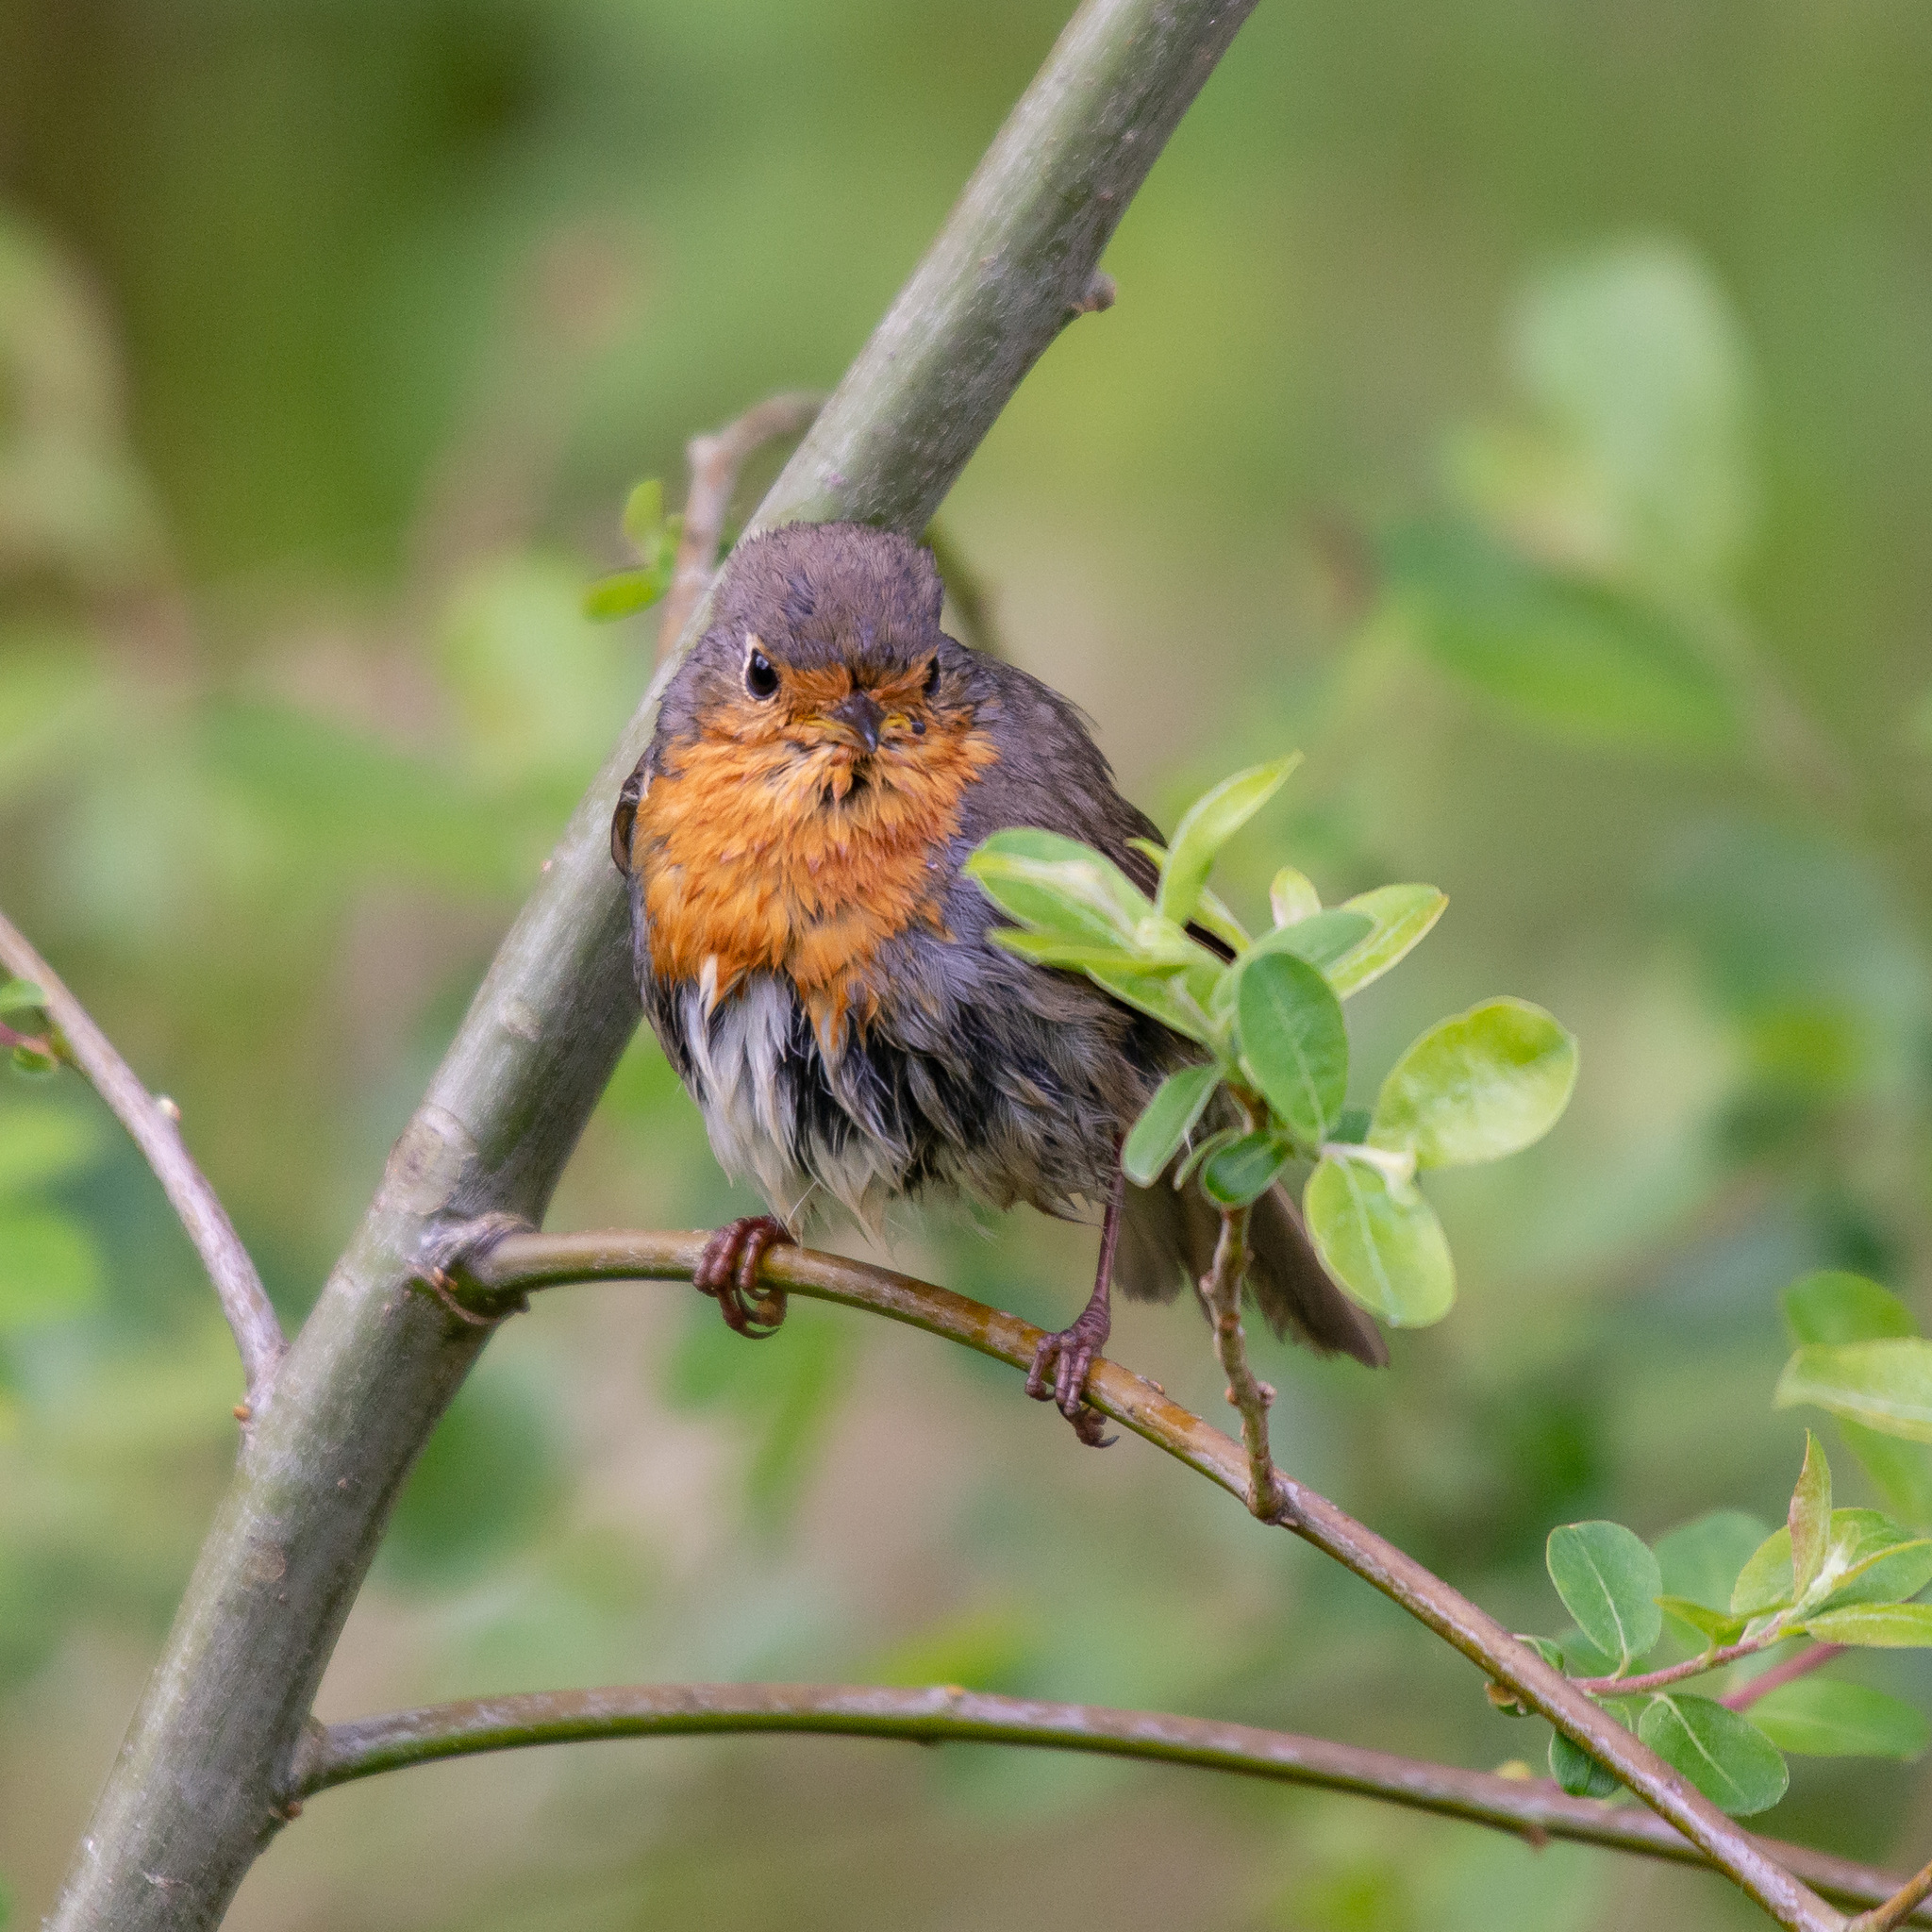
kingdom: Animalia
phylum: Chordata
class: Aves
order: Passeriformes
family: Muscicapidae
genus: Erithacus
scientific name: Erithacus rubecula
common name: European robin
